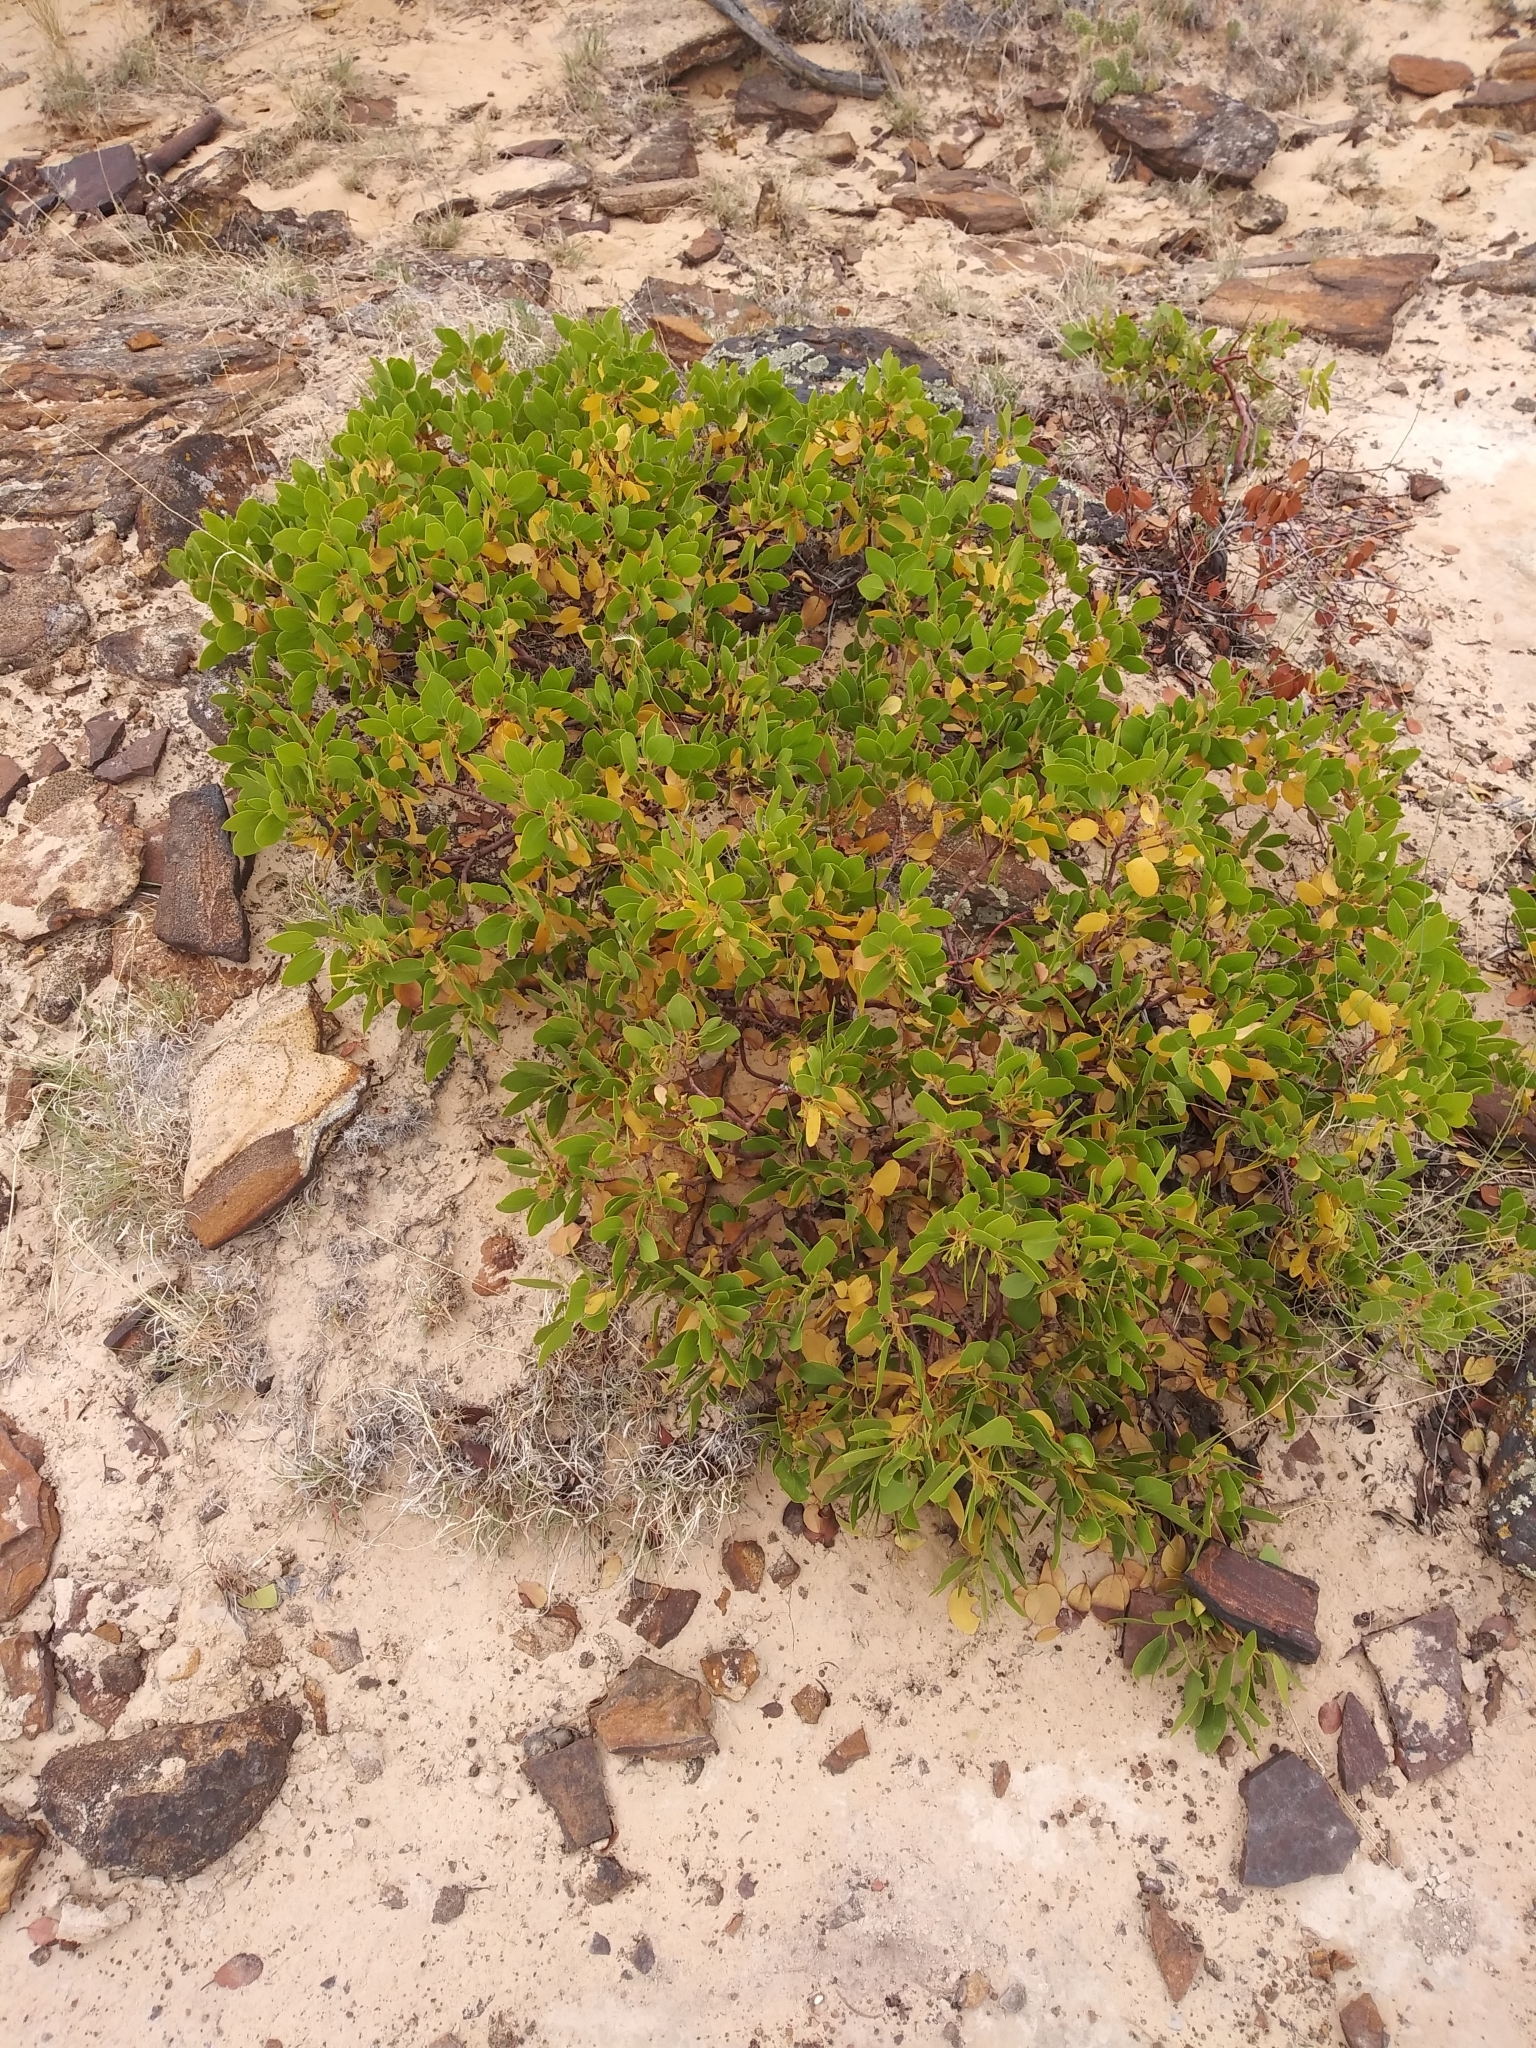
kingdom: Plantae
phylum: Tracheophyta
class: Magnoliopsida
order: Ericales
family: Ericaceae
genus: Arctostaphylos
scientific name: Arctostaphylos patula
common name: Green-leaf manzanita
